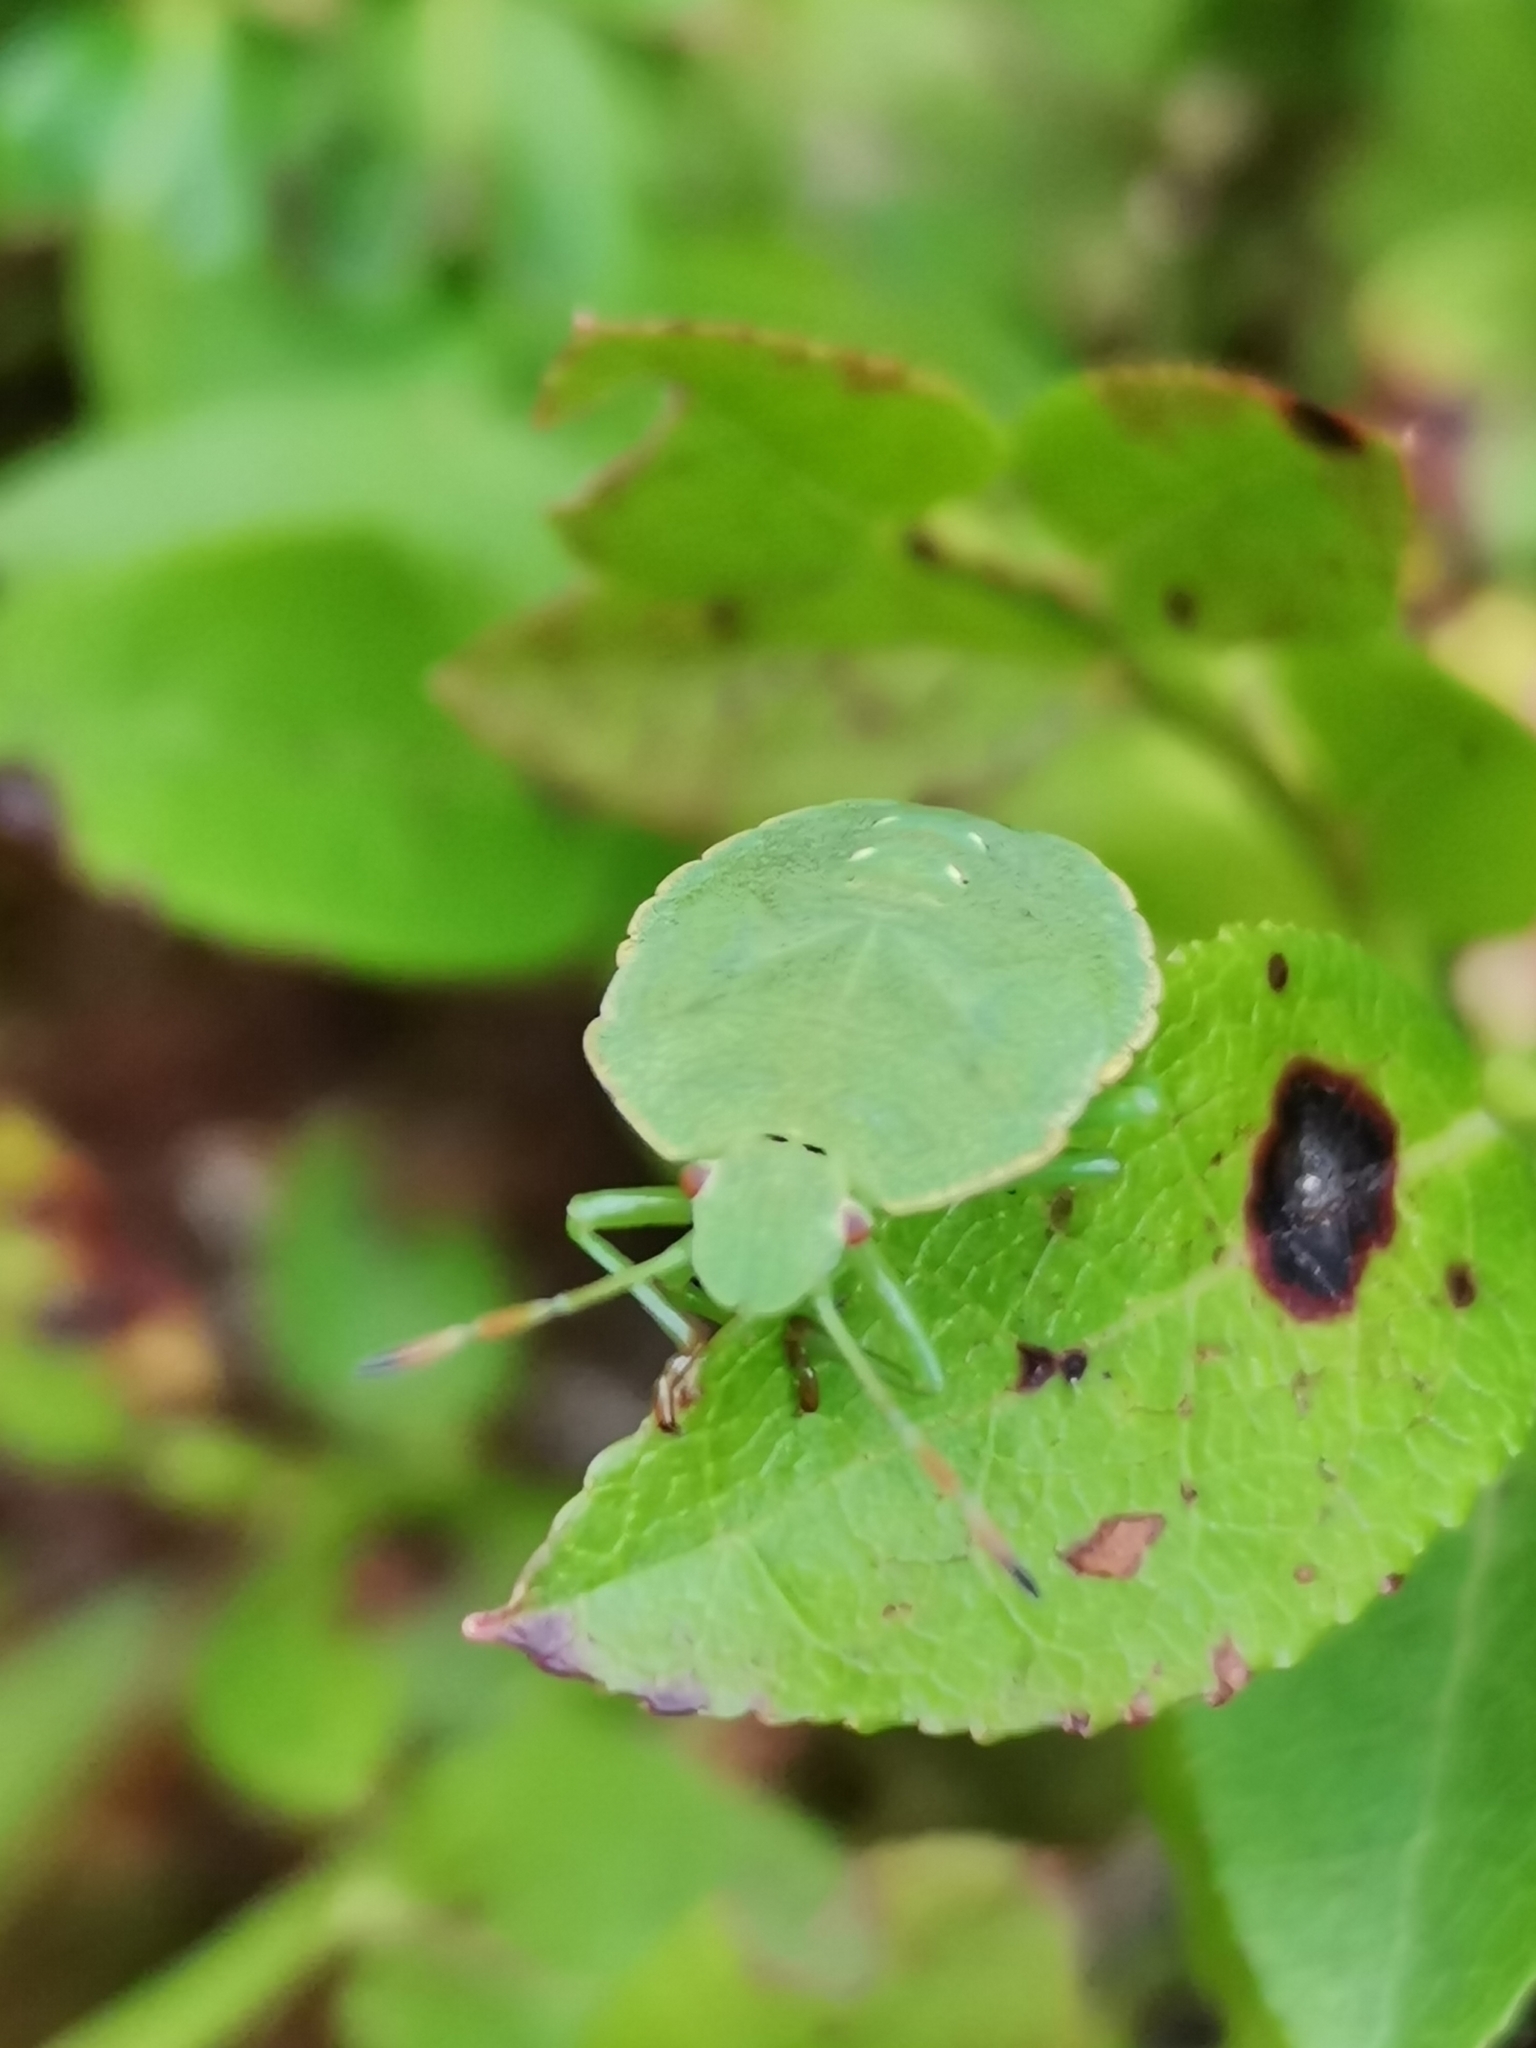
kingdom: Animalia
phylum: Arthropoda
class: Insecta
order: Hemiptera
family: Pentatomidae
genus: Palomena
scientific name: Palomena prasina
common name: Green shieldbug
